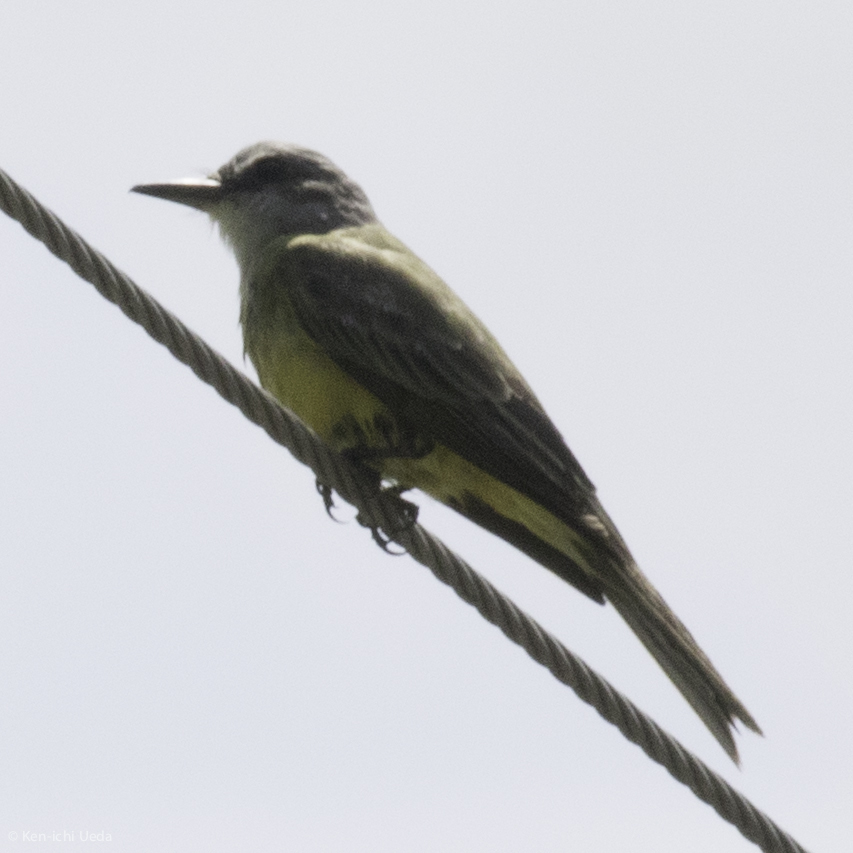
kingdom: Animalia
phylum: Chordata
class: Aves
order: Passeriformes
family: Tyrannidae
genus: Tyrannus
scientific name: Tyrannus melancholicus
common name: Tropical kingbird
